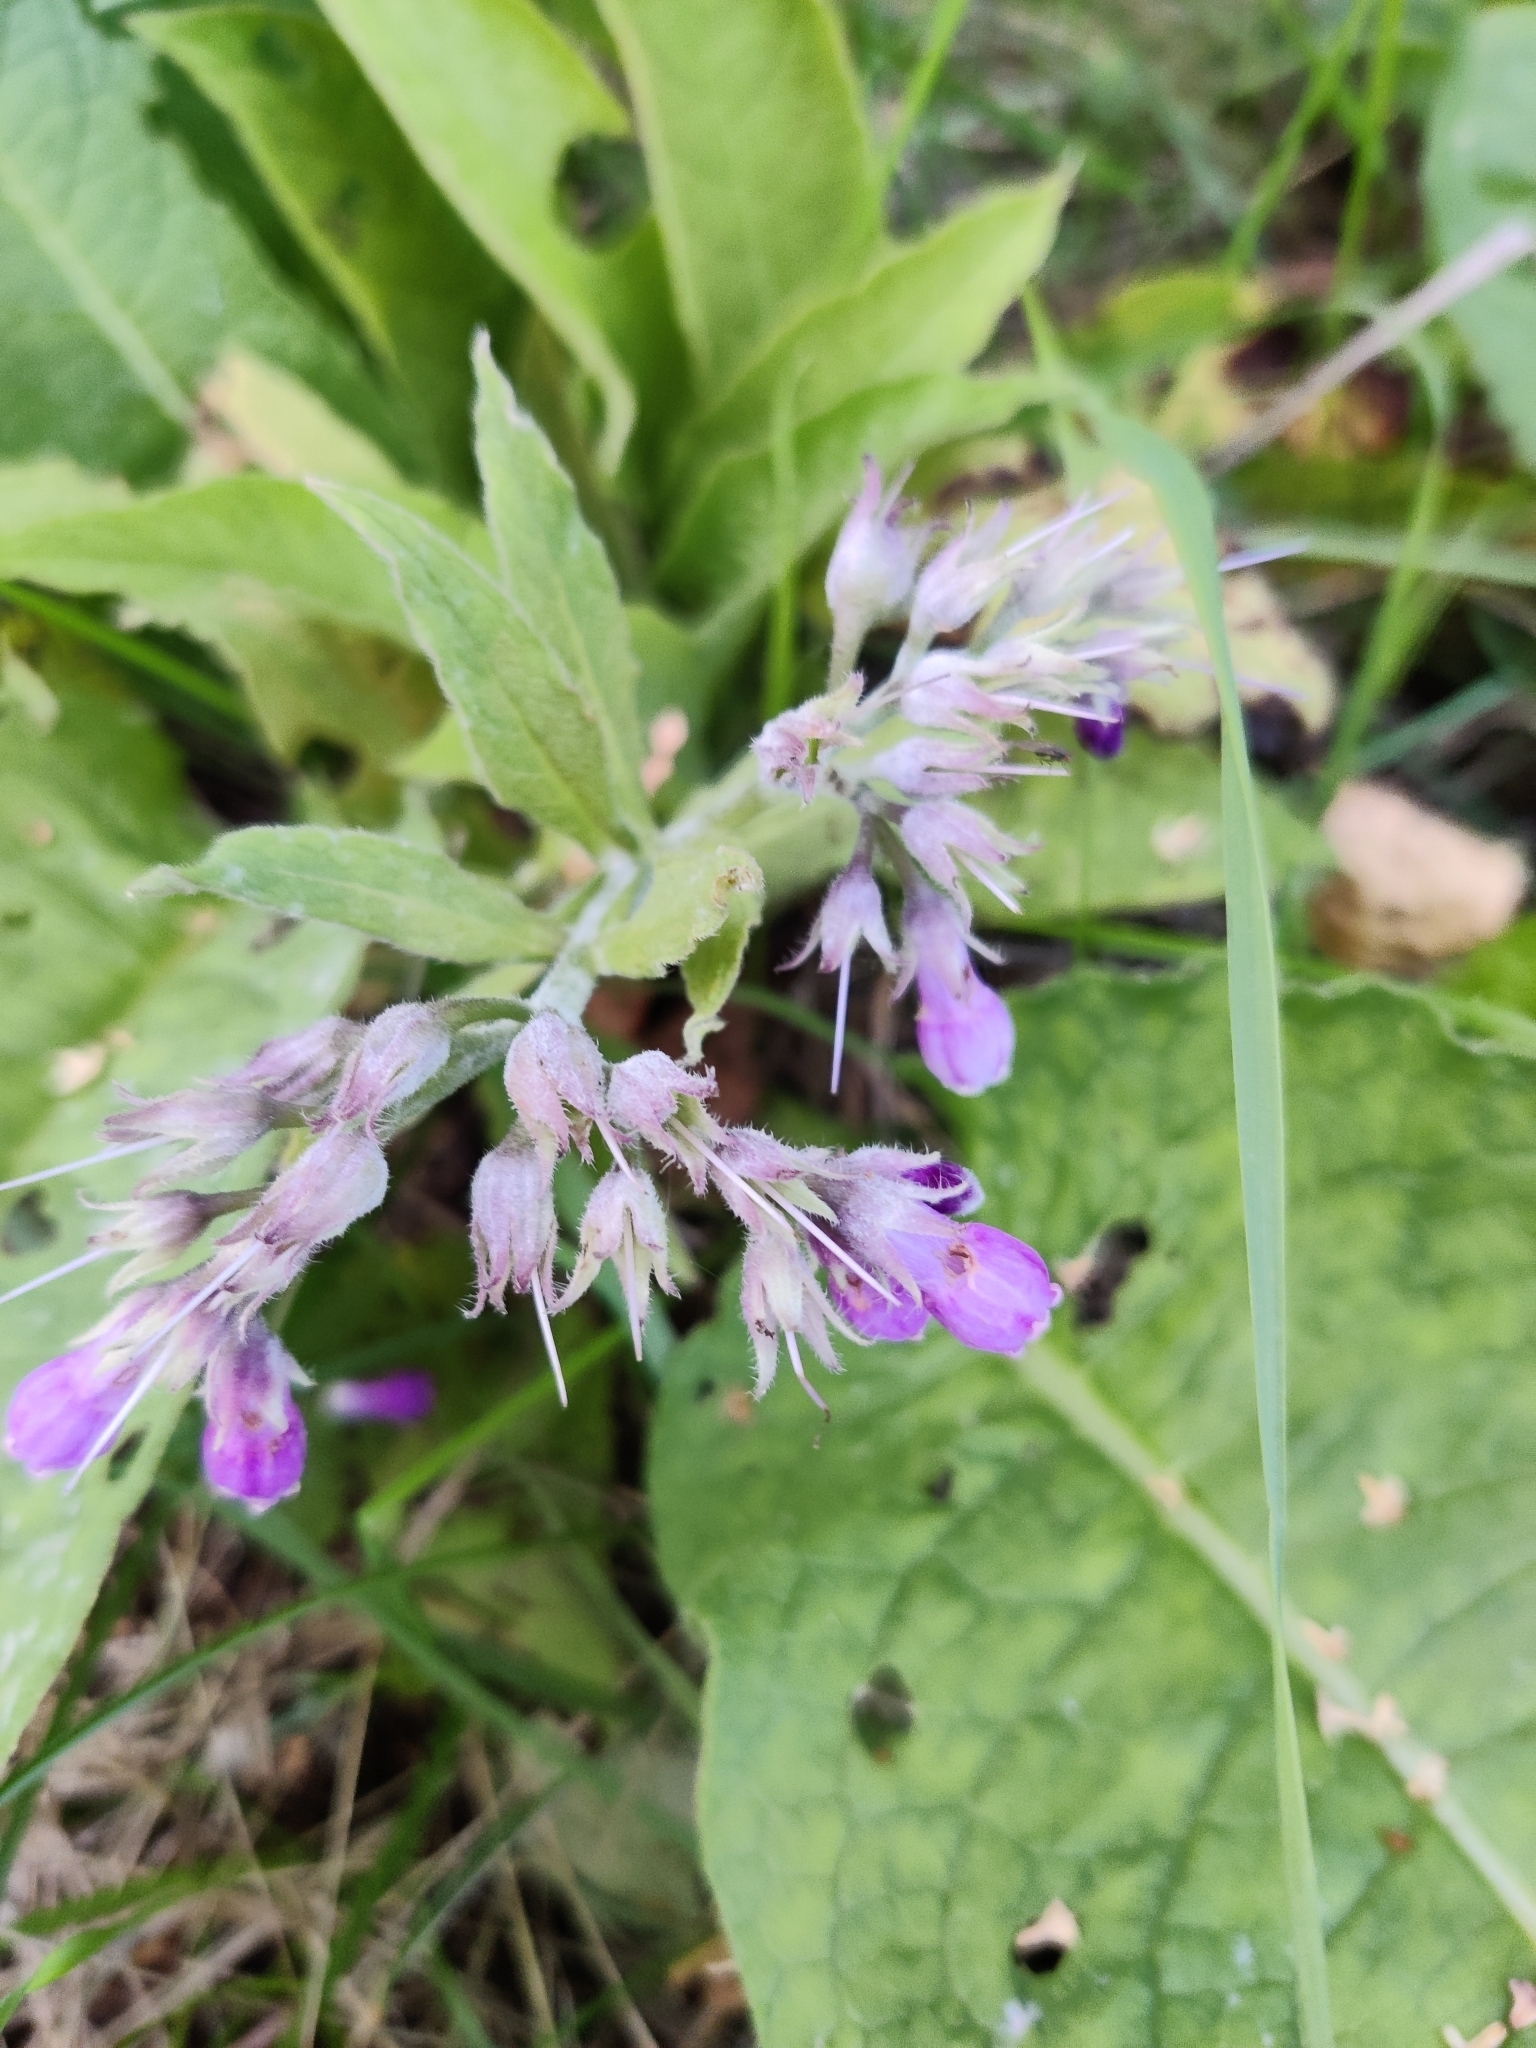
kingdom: Plantae
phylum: Tracheophyta
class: Magnoliopsida
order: Boraginales
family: Boraginaceae
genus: Symphytum
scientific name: Symphytum officinale
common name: Common comfrey
